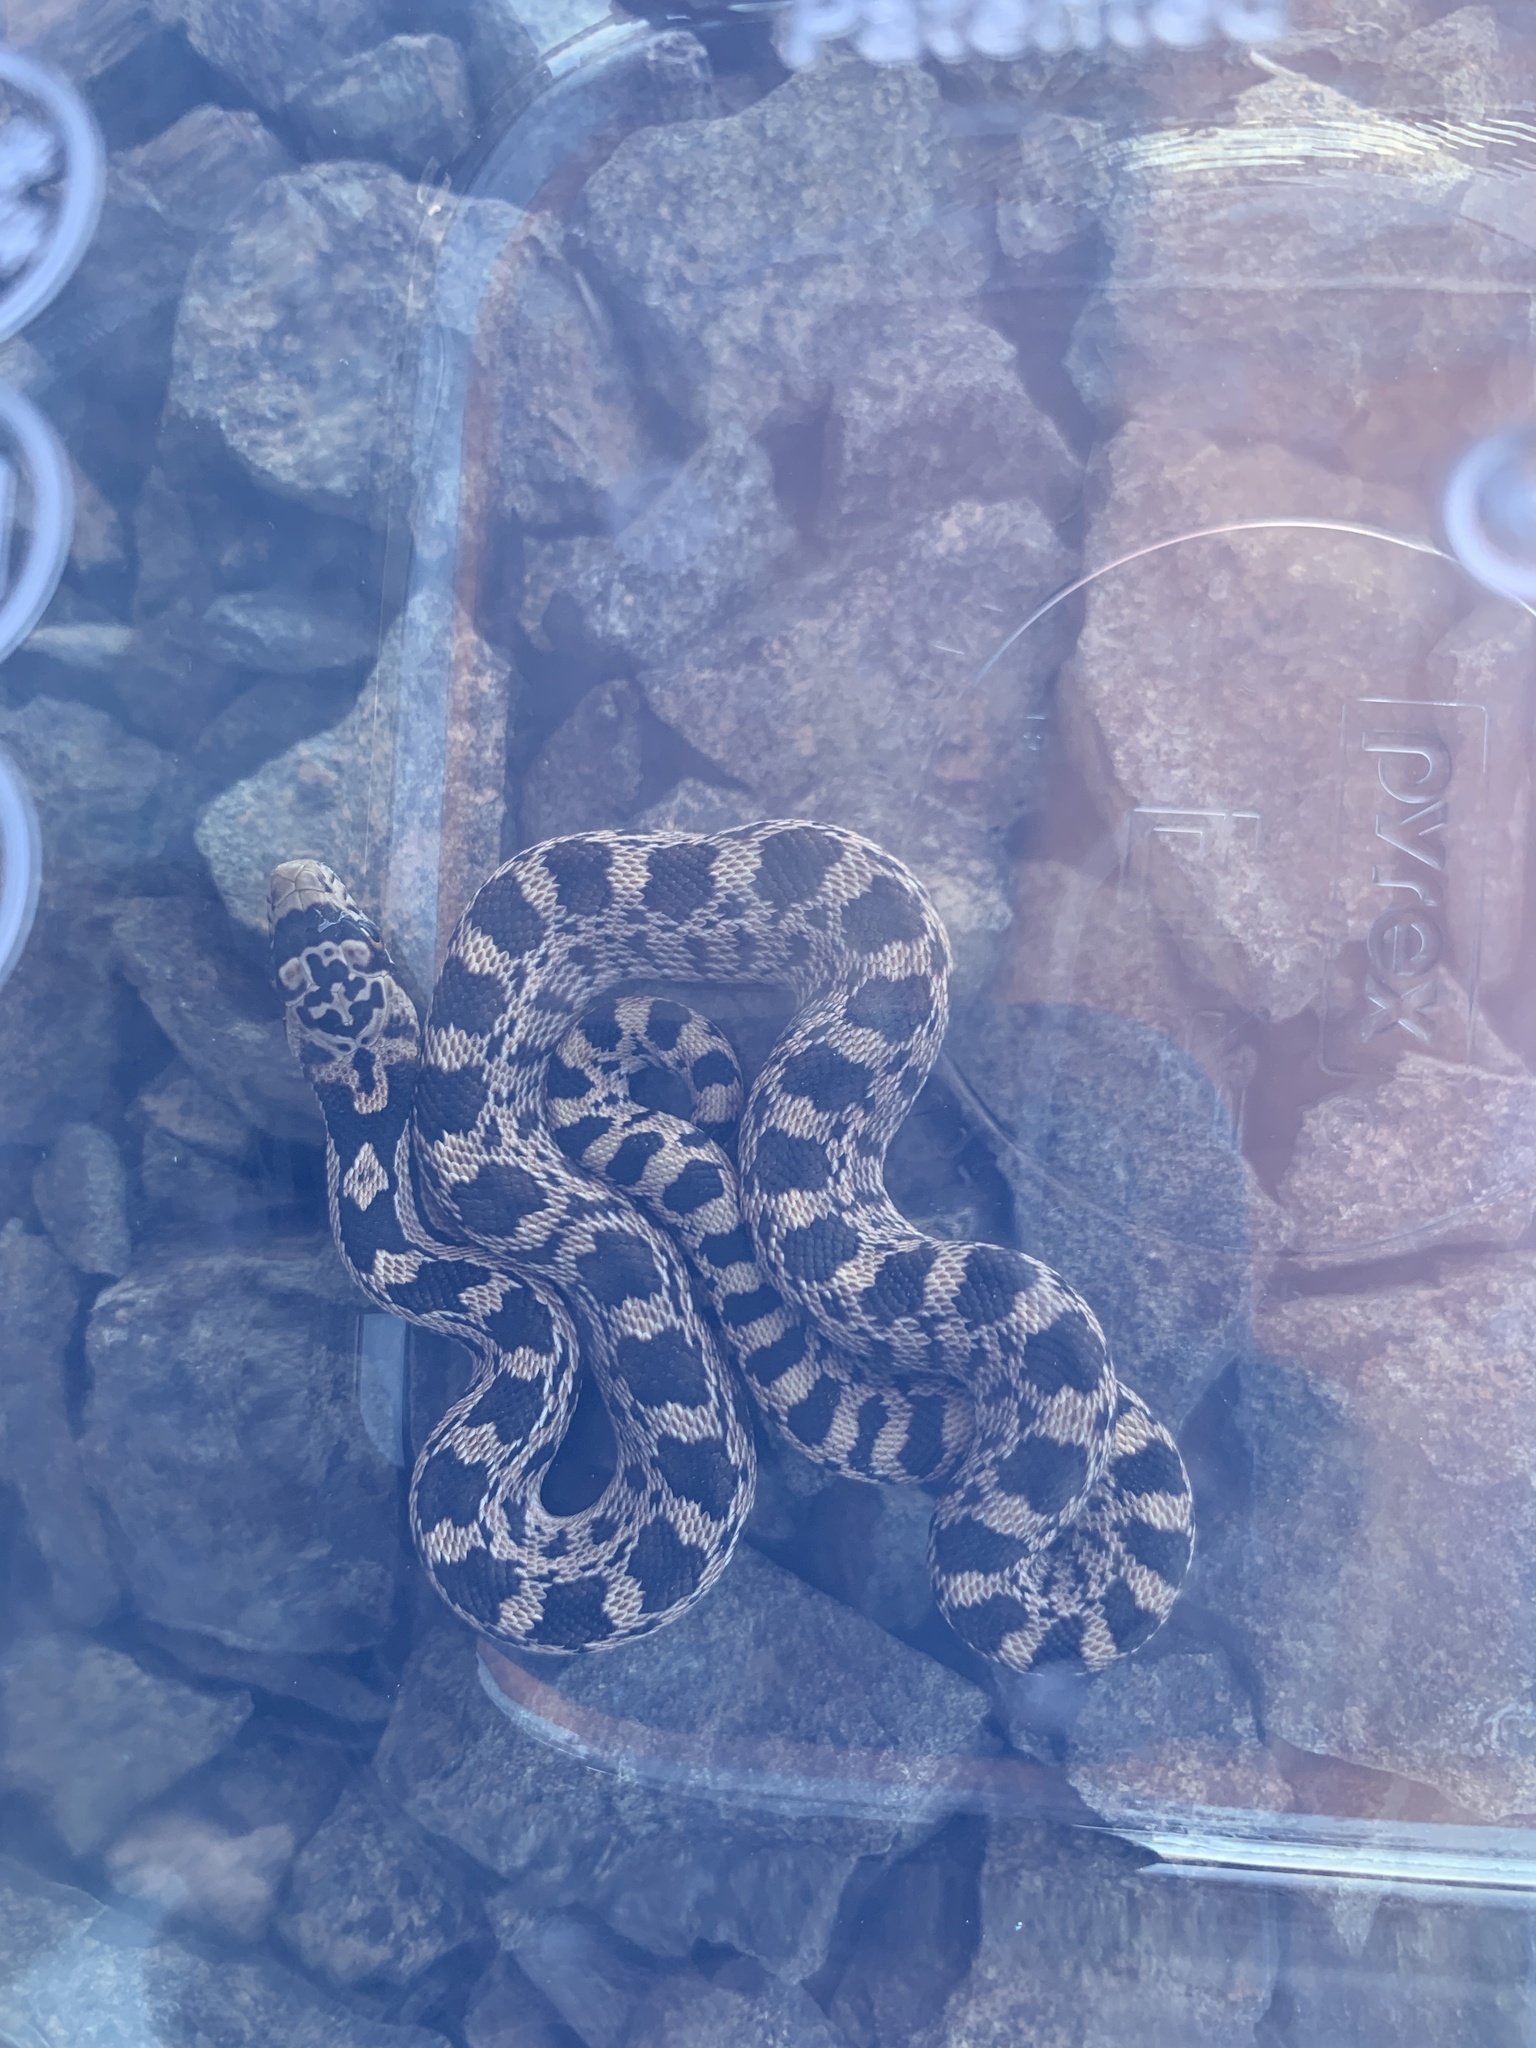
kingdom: Animalia
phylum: Chordata
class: Squamata
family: Colubridae
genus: Pituophis
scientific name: Pituophis catenifer
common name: Gopher snake
